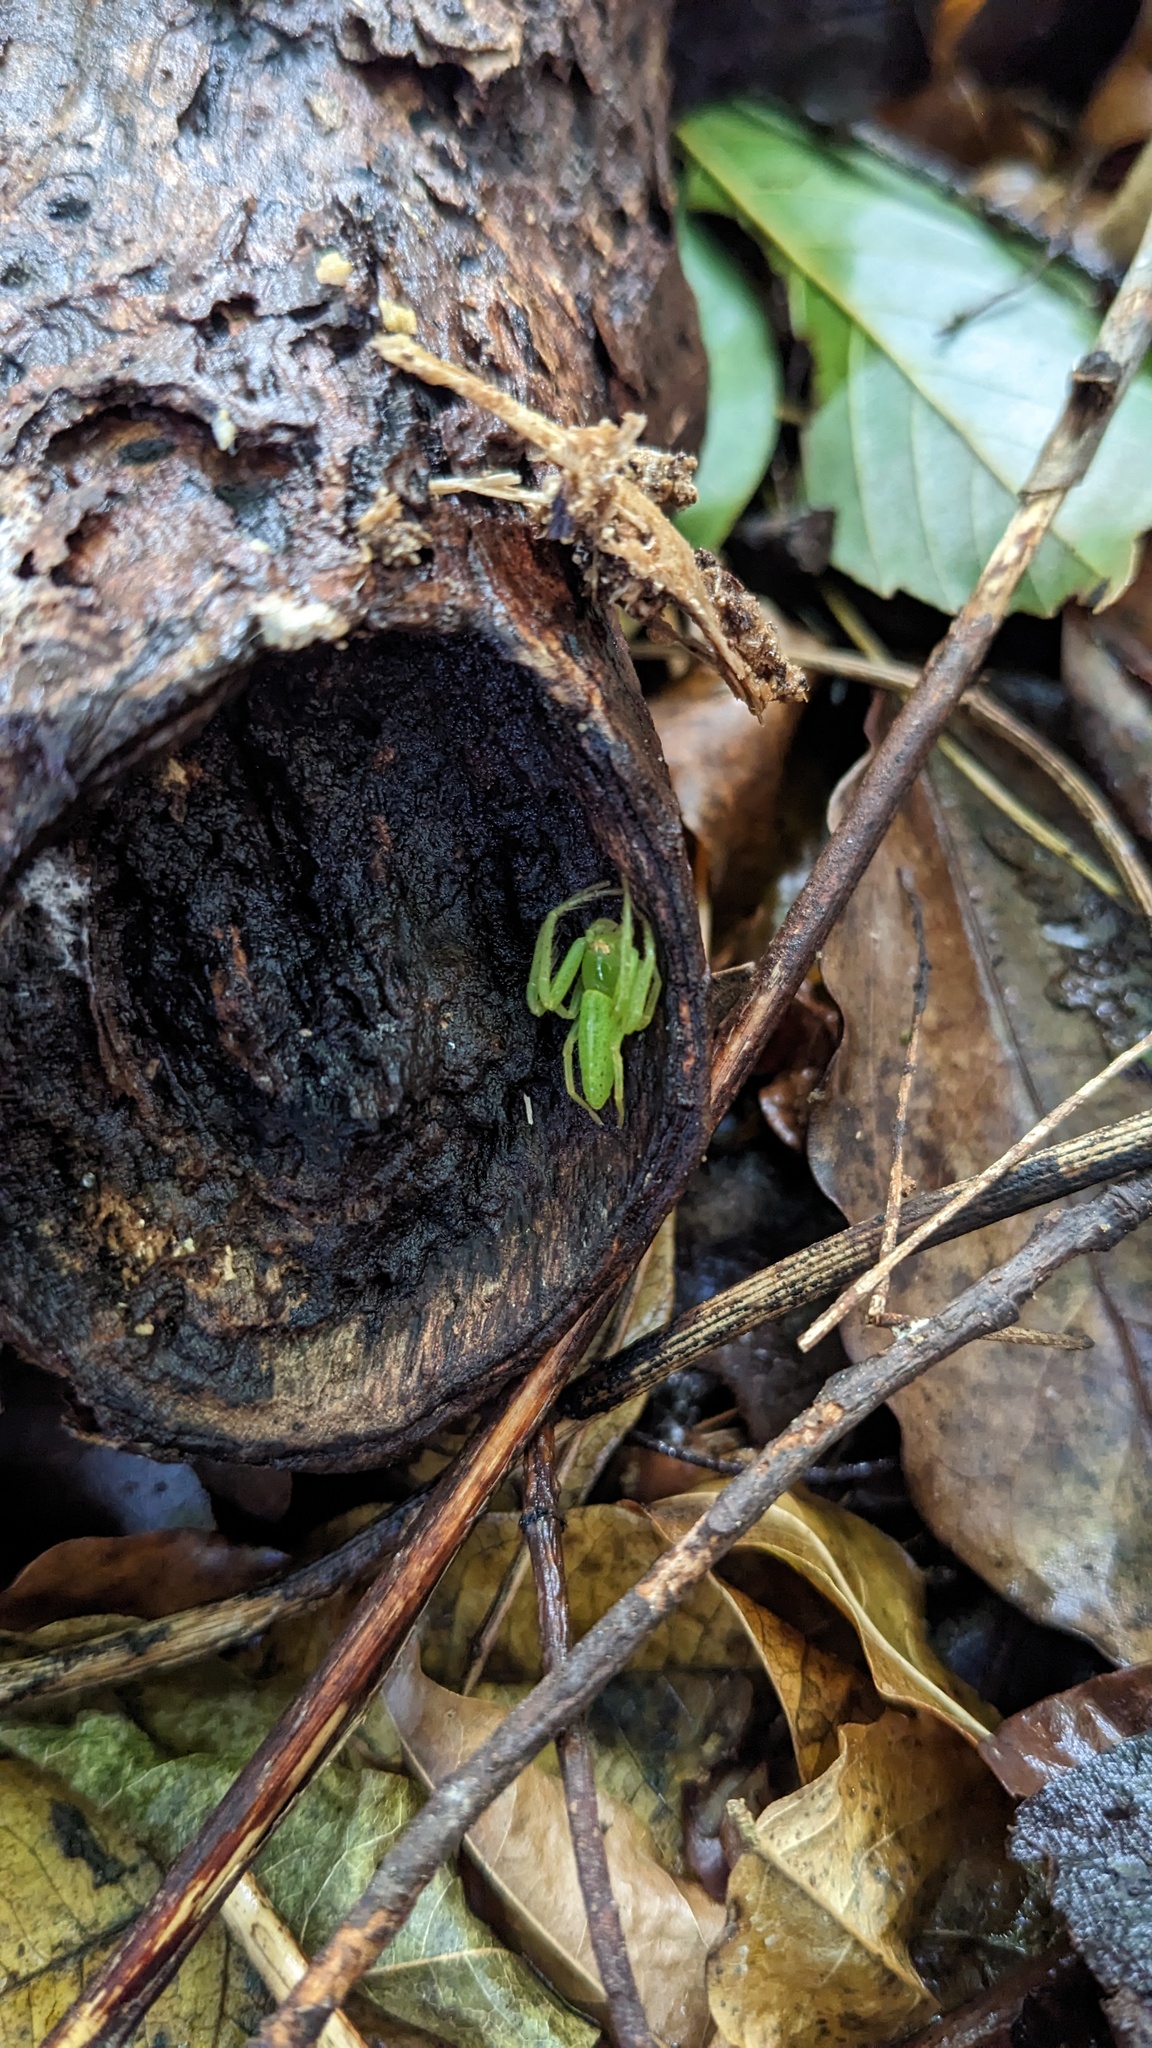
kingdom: Animalia
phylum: Arthropoda
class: Arachnida
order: Araneae
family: Thomisidae
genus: Oxytate
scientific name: Oxytate striatipes
